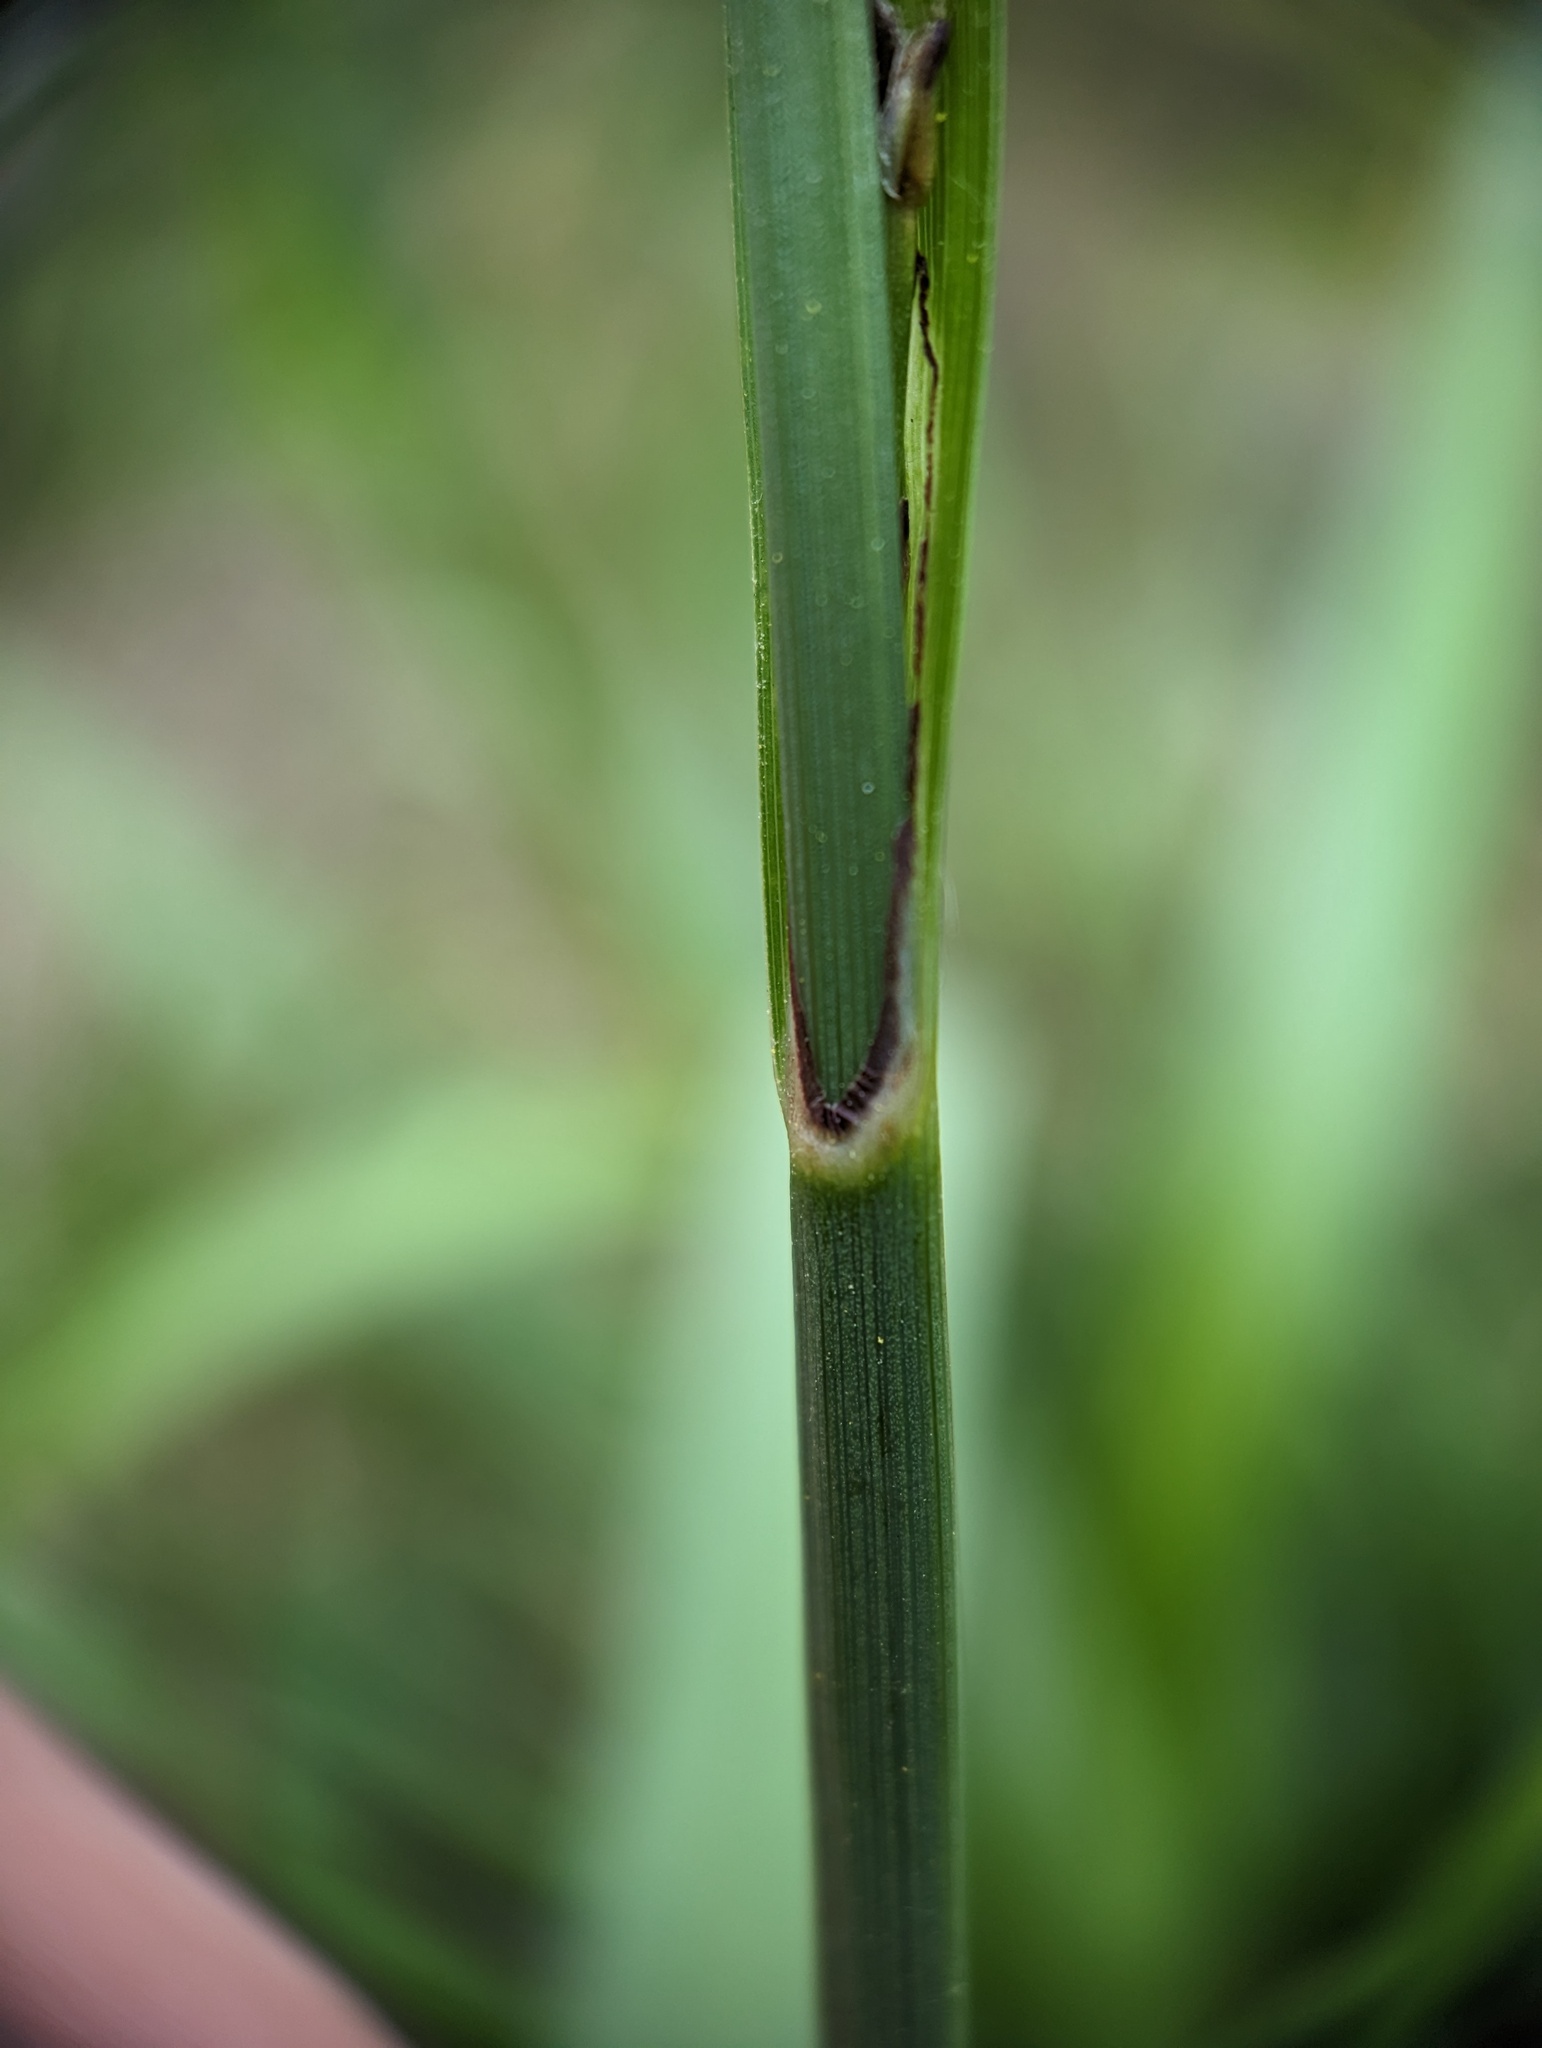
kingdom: Plantae
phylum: Tracheophyta
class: Liliopsida
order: Poales
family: Cyperaceae
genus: Carex
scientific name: Carex pendula
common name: Pendulous sedge
